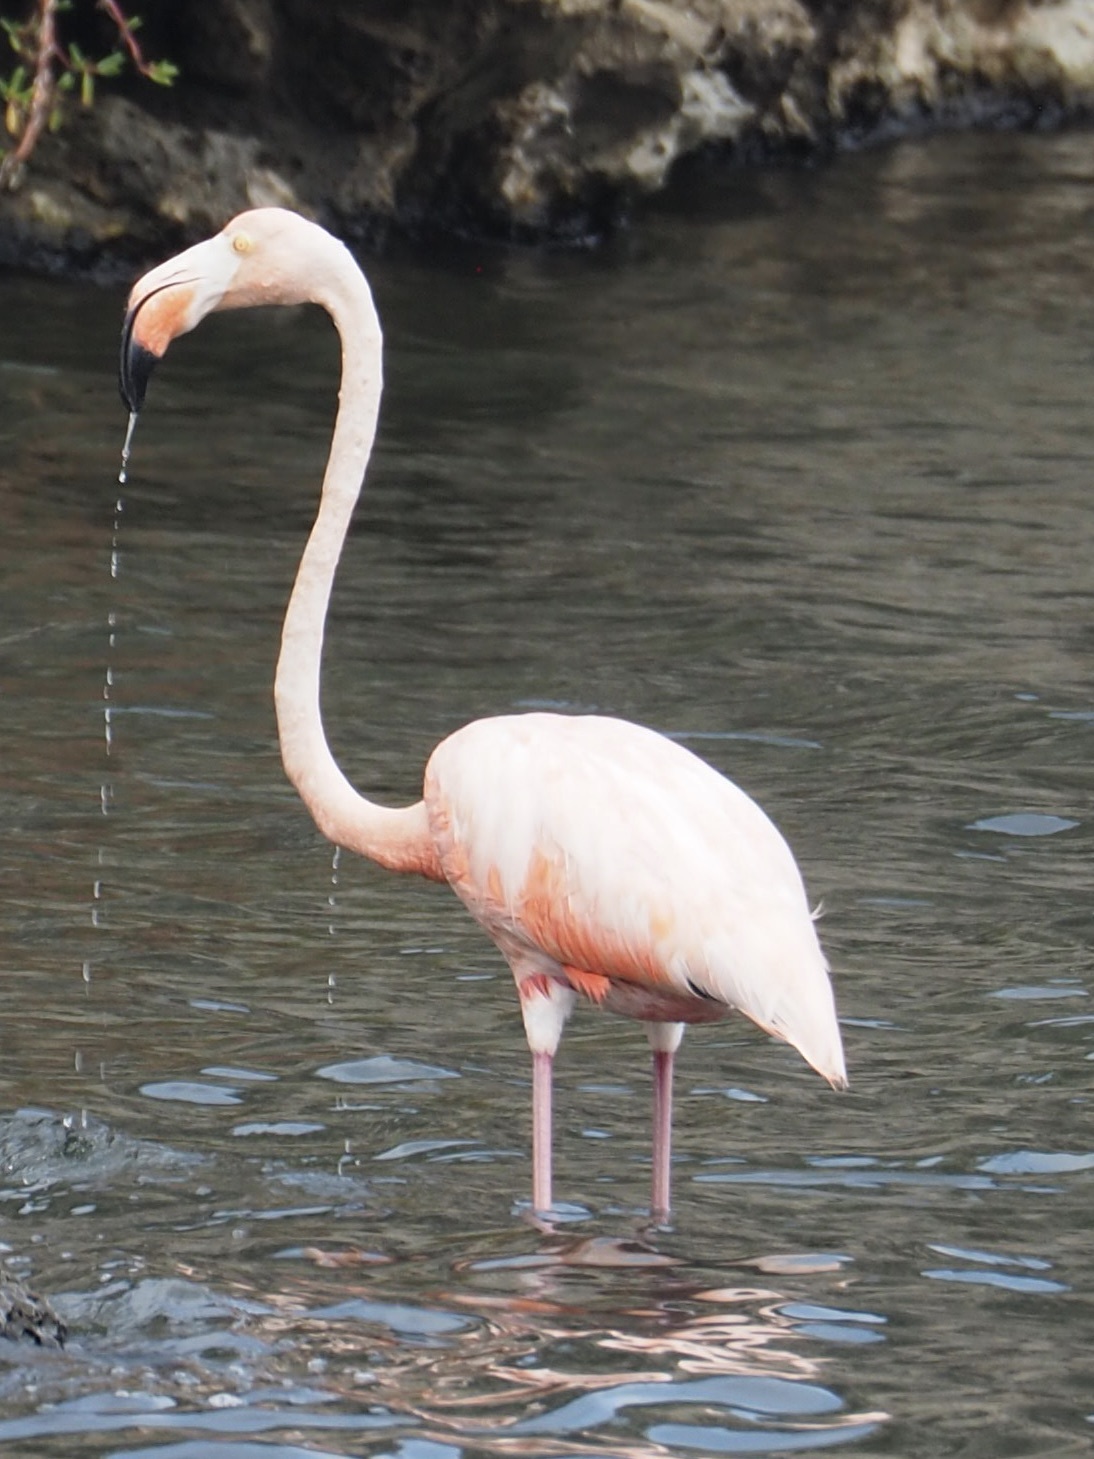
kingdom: Animalia
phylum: Chordata
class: Aves
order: Phoenicopteriformes
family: Phoenicopteridae
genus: Phoenicopterus
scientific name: Phoenicopterus ruber
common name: American flamingo
